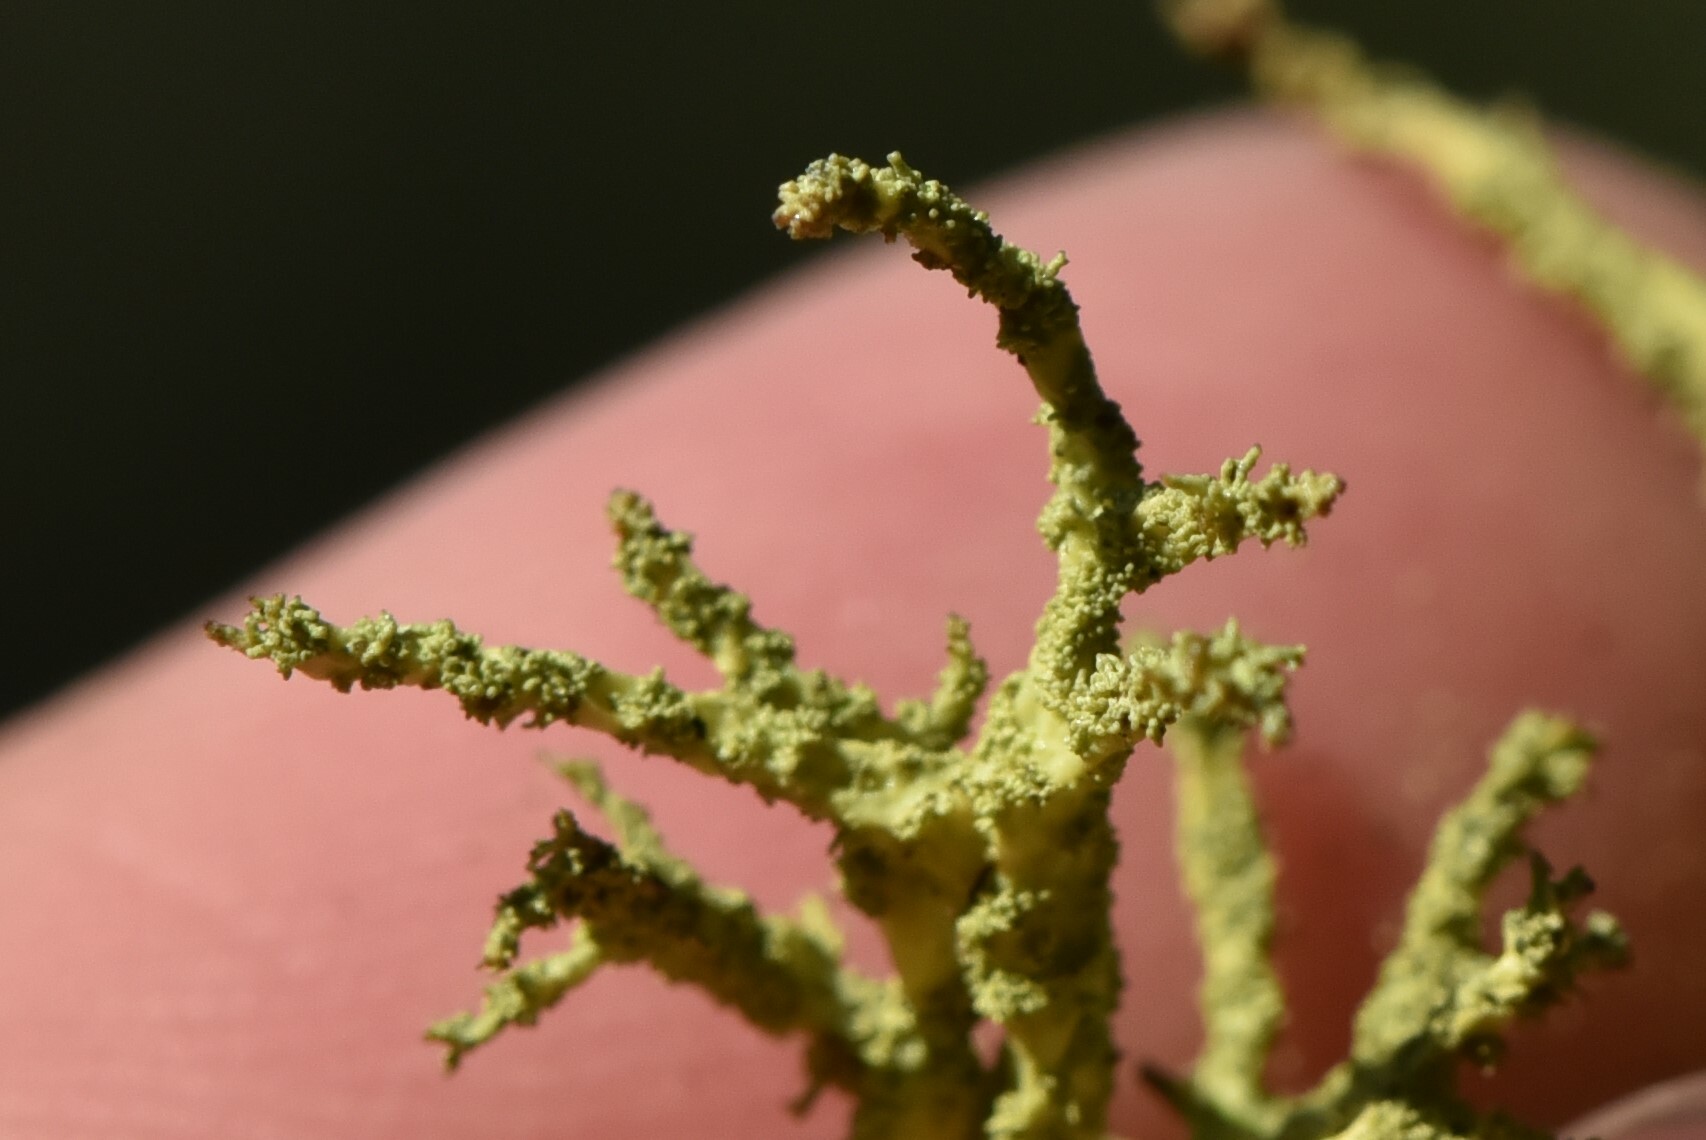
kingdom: Fungi
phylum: Ascomycota
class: Lecanoromycetes
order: Lecanorales
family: Parmeliaceae
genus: Letharia
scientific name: Letharia vulpina
